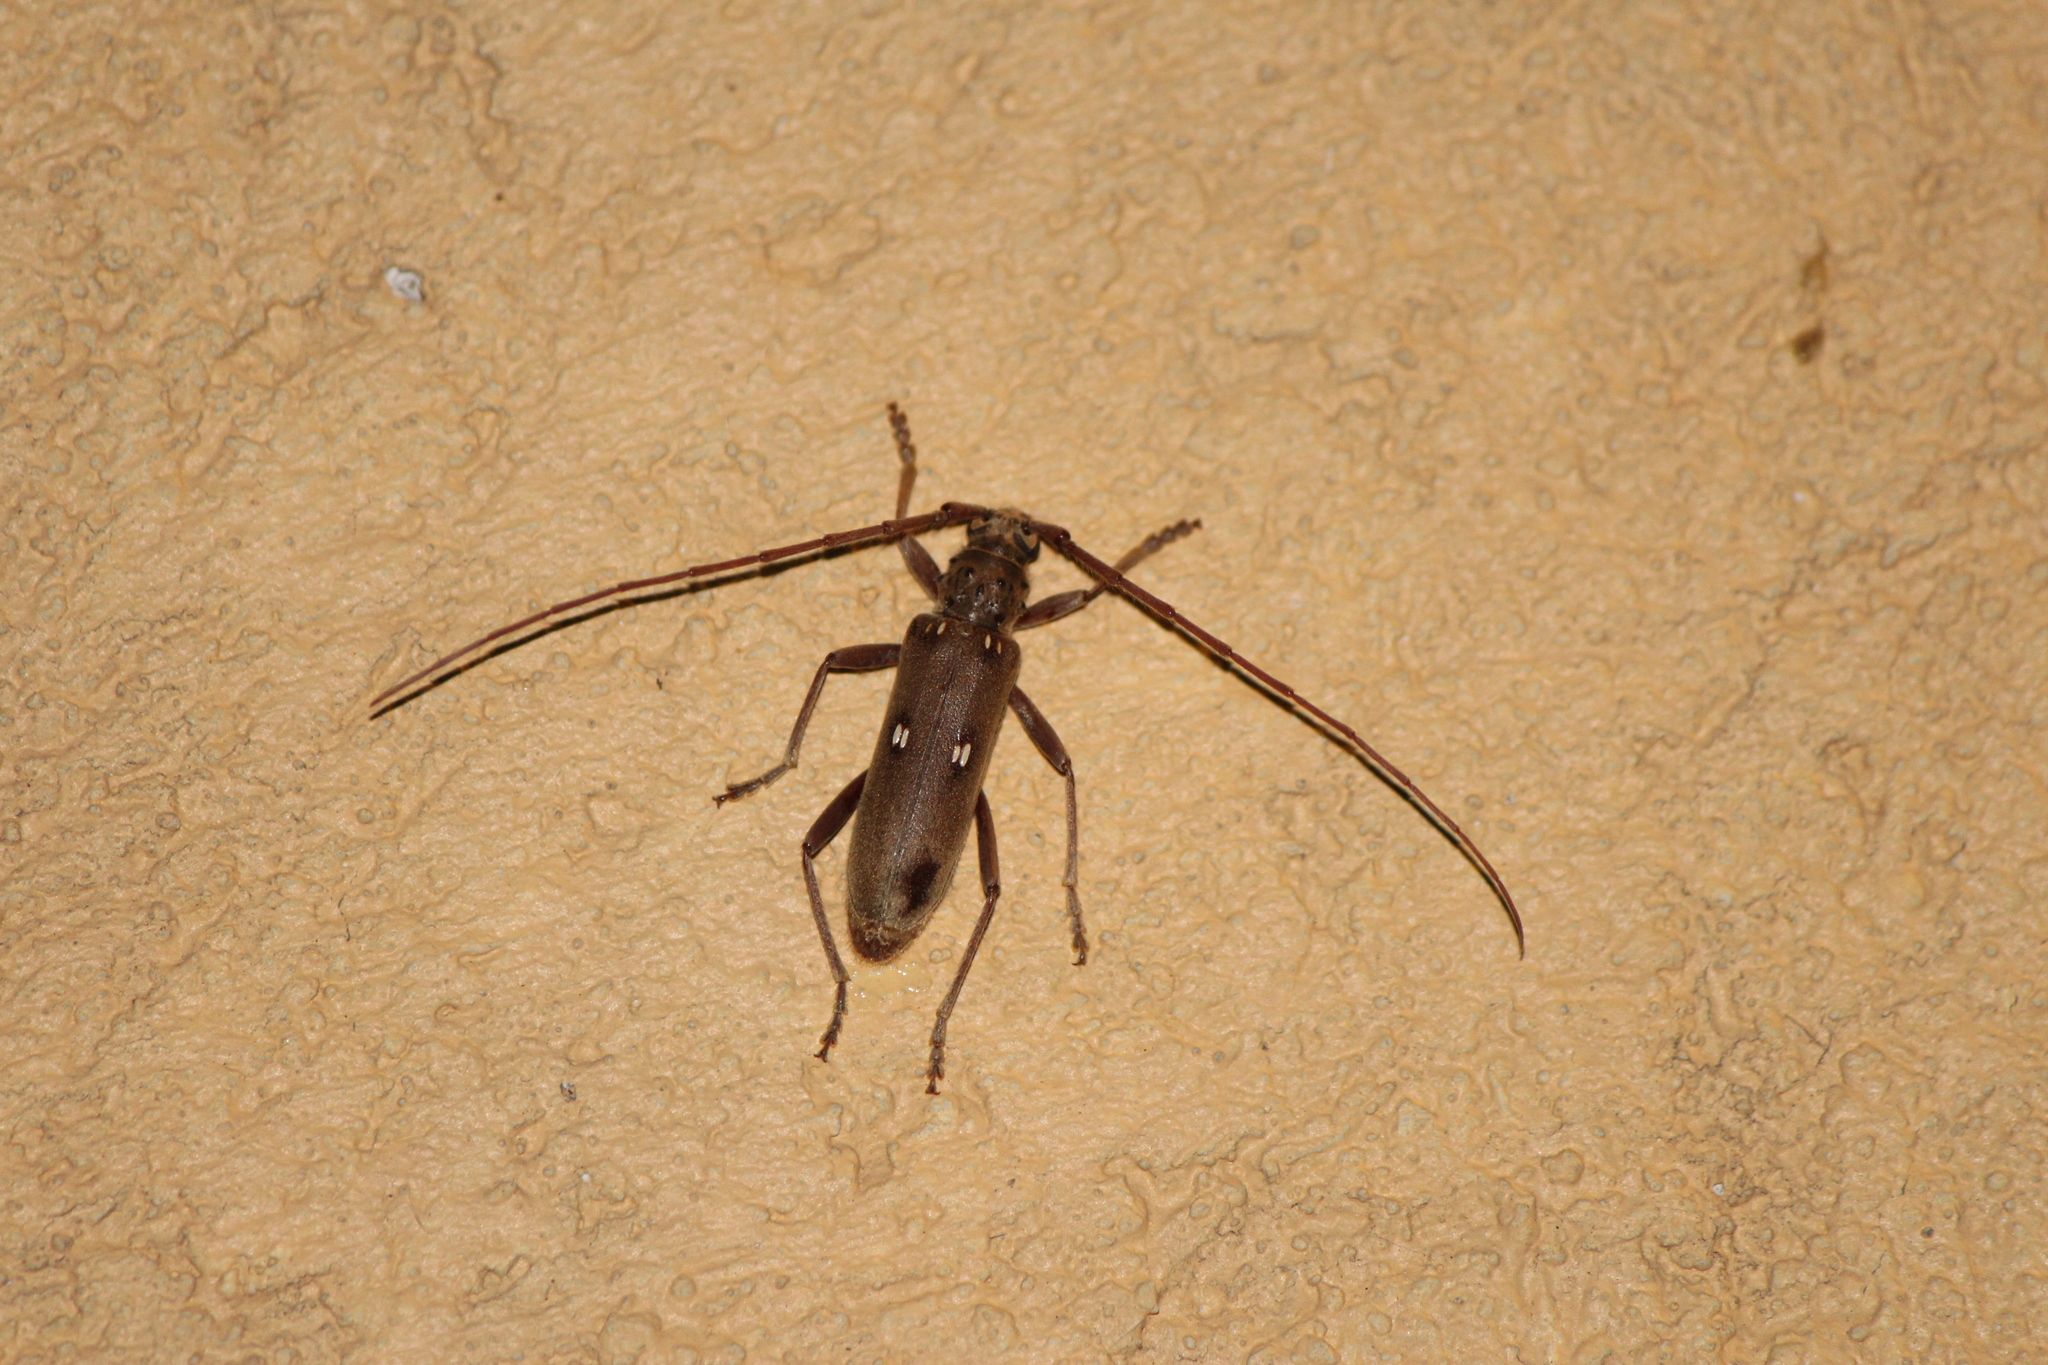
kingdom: Animalia
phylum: Arthropoda
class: Insecta
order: Coleoptera
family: Cerambycidae
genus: Susuacanga
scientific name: Susuacanga patruelis
